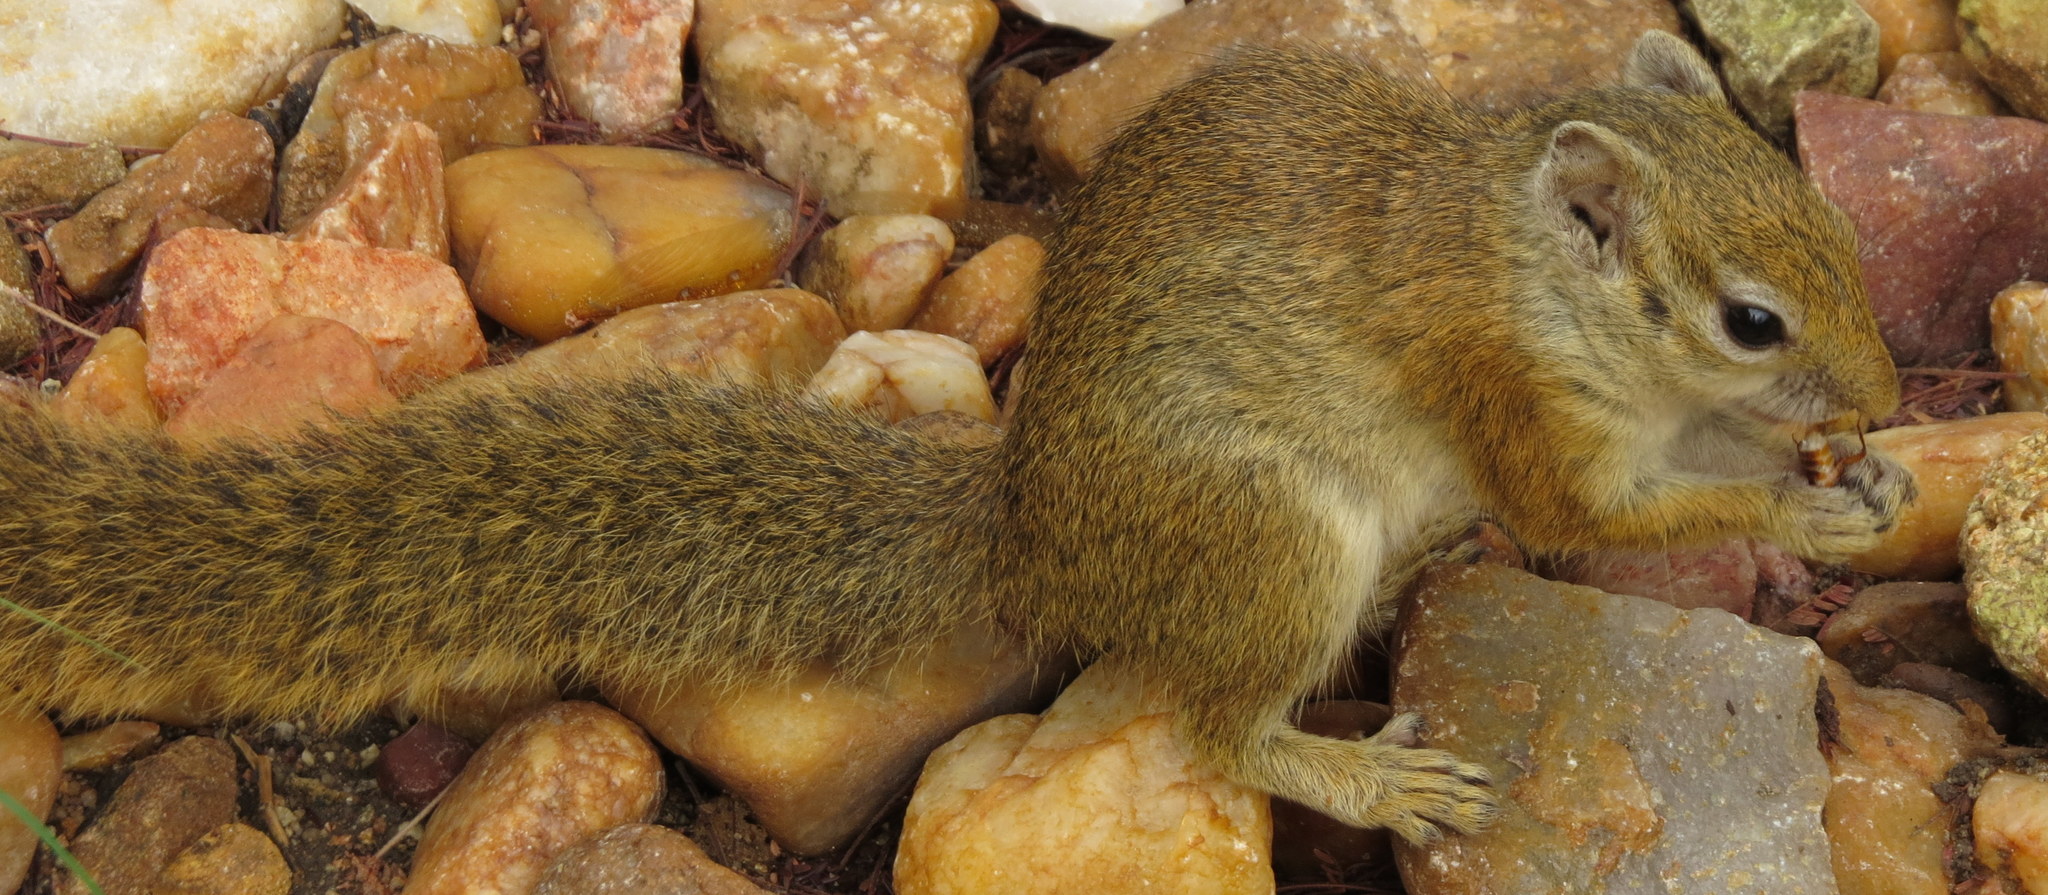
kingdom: Animalia
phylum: Chordata
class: Mammalia
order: Rodentia
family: Sciuridae
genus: Paraxerus
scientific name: Paraxerus ochraceus
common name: Ochre bush squirrel
